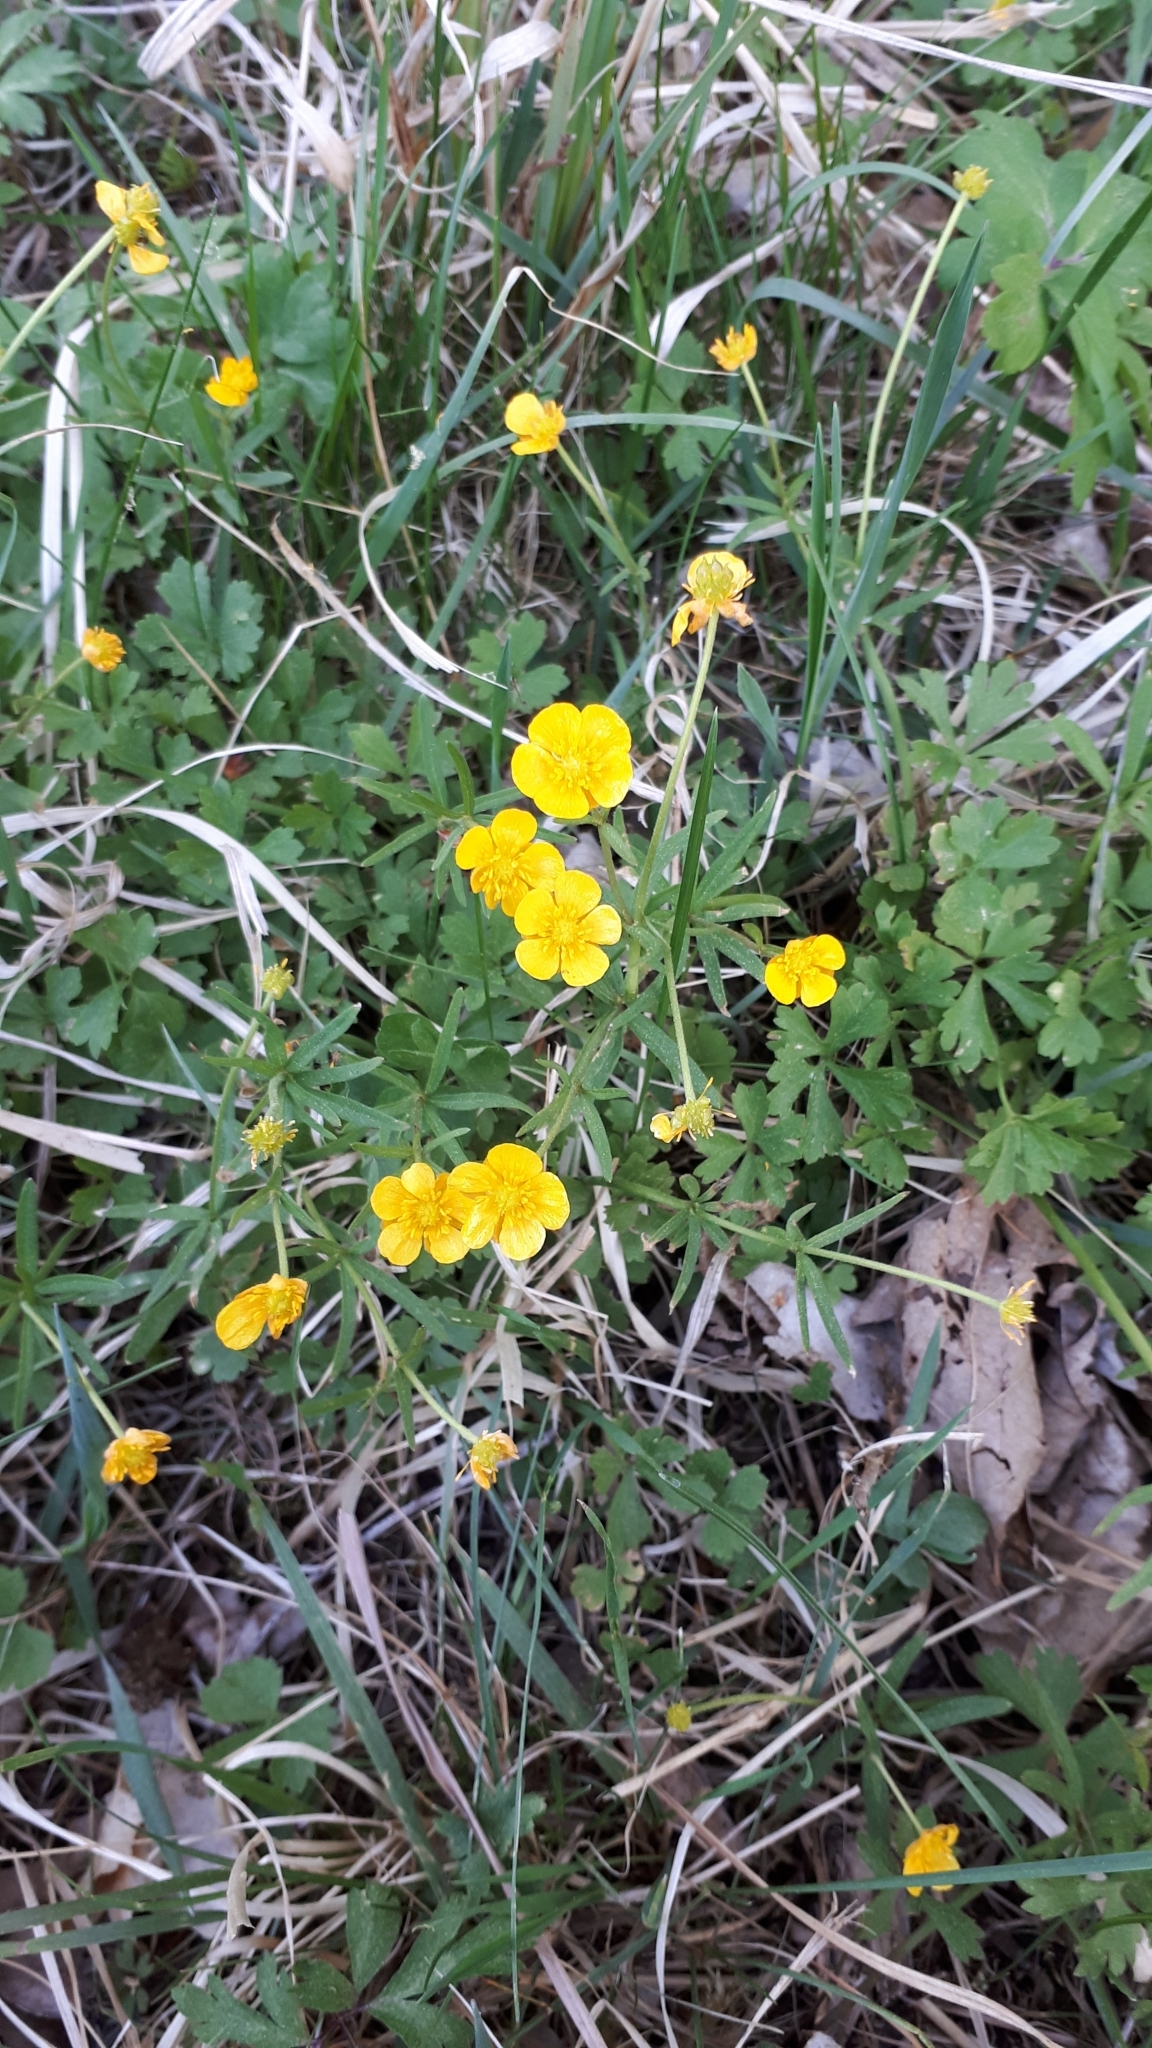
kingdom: Plantae
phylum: Tracheophyta
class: Magnoliopsida
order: Ranunculales
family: Ranunculaceae
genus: Ranunculus
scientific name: Ranunculus auricomus
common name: Goldilocks buttercup
